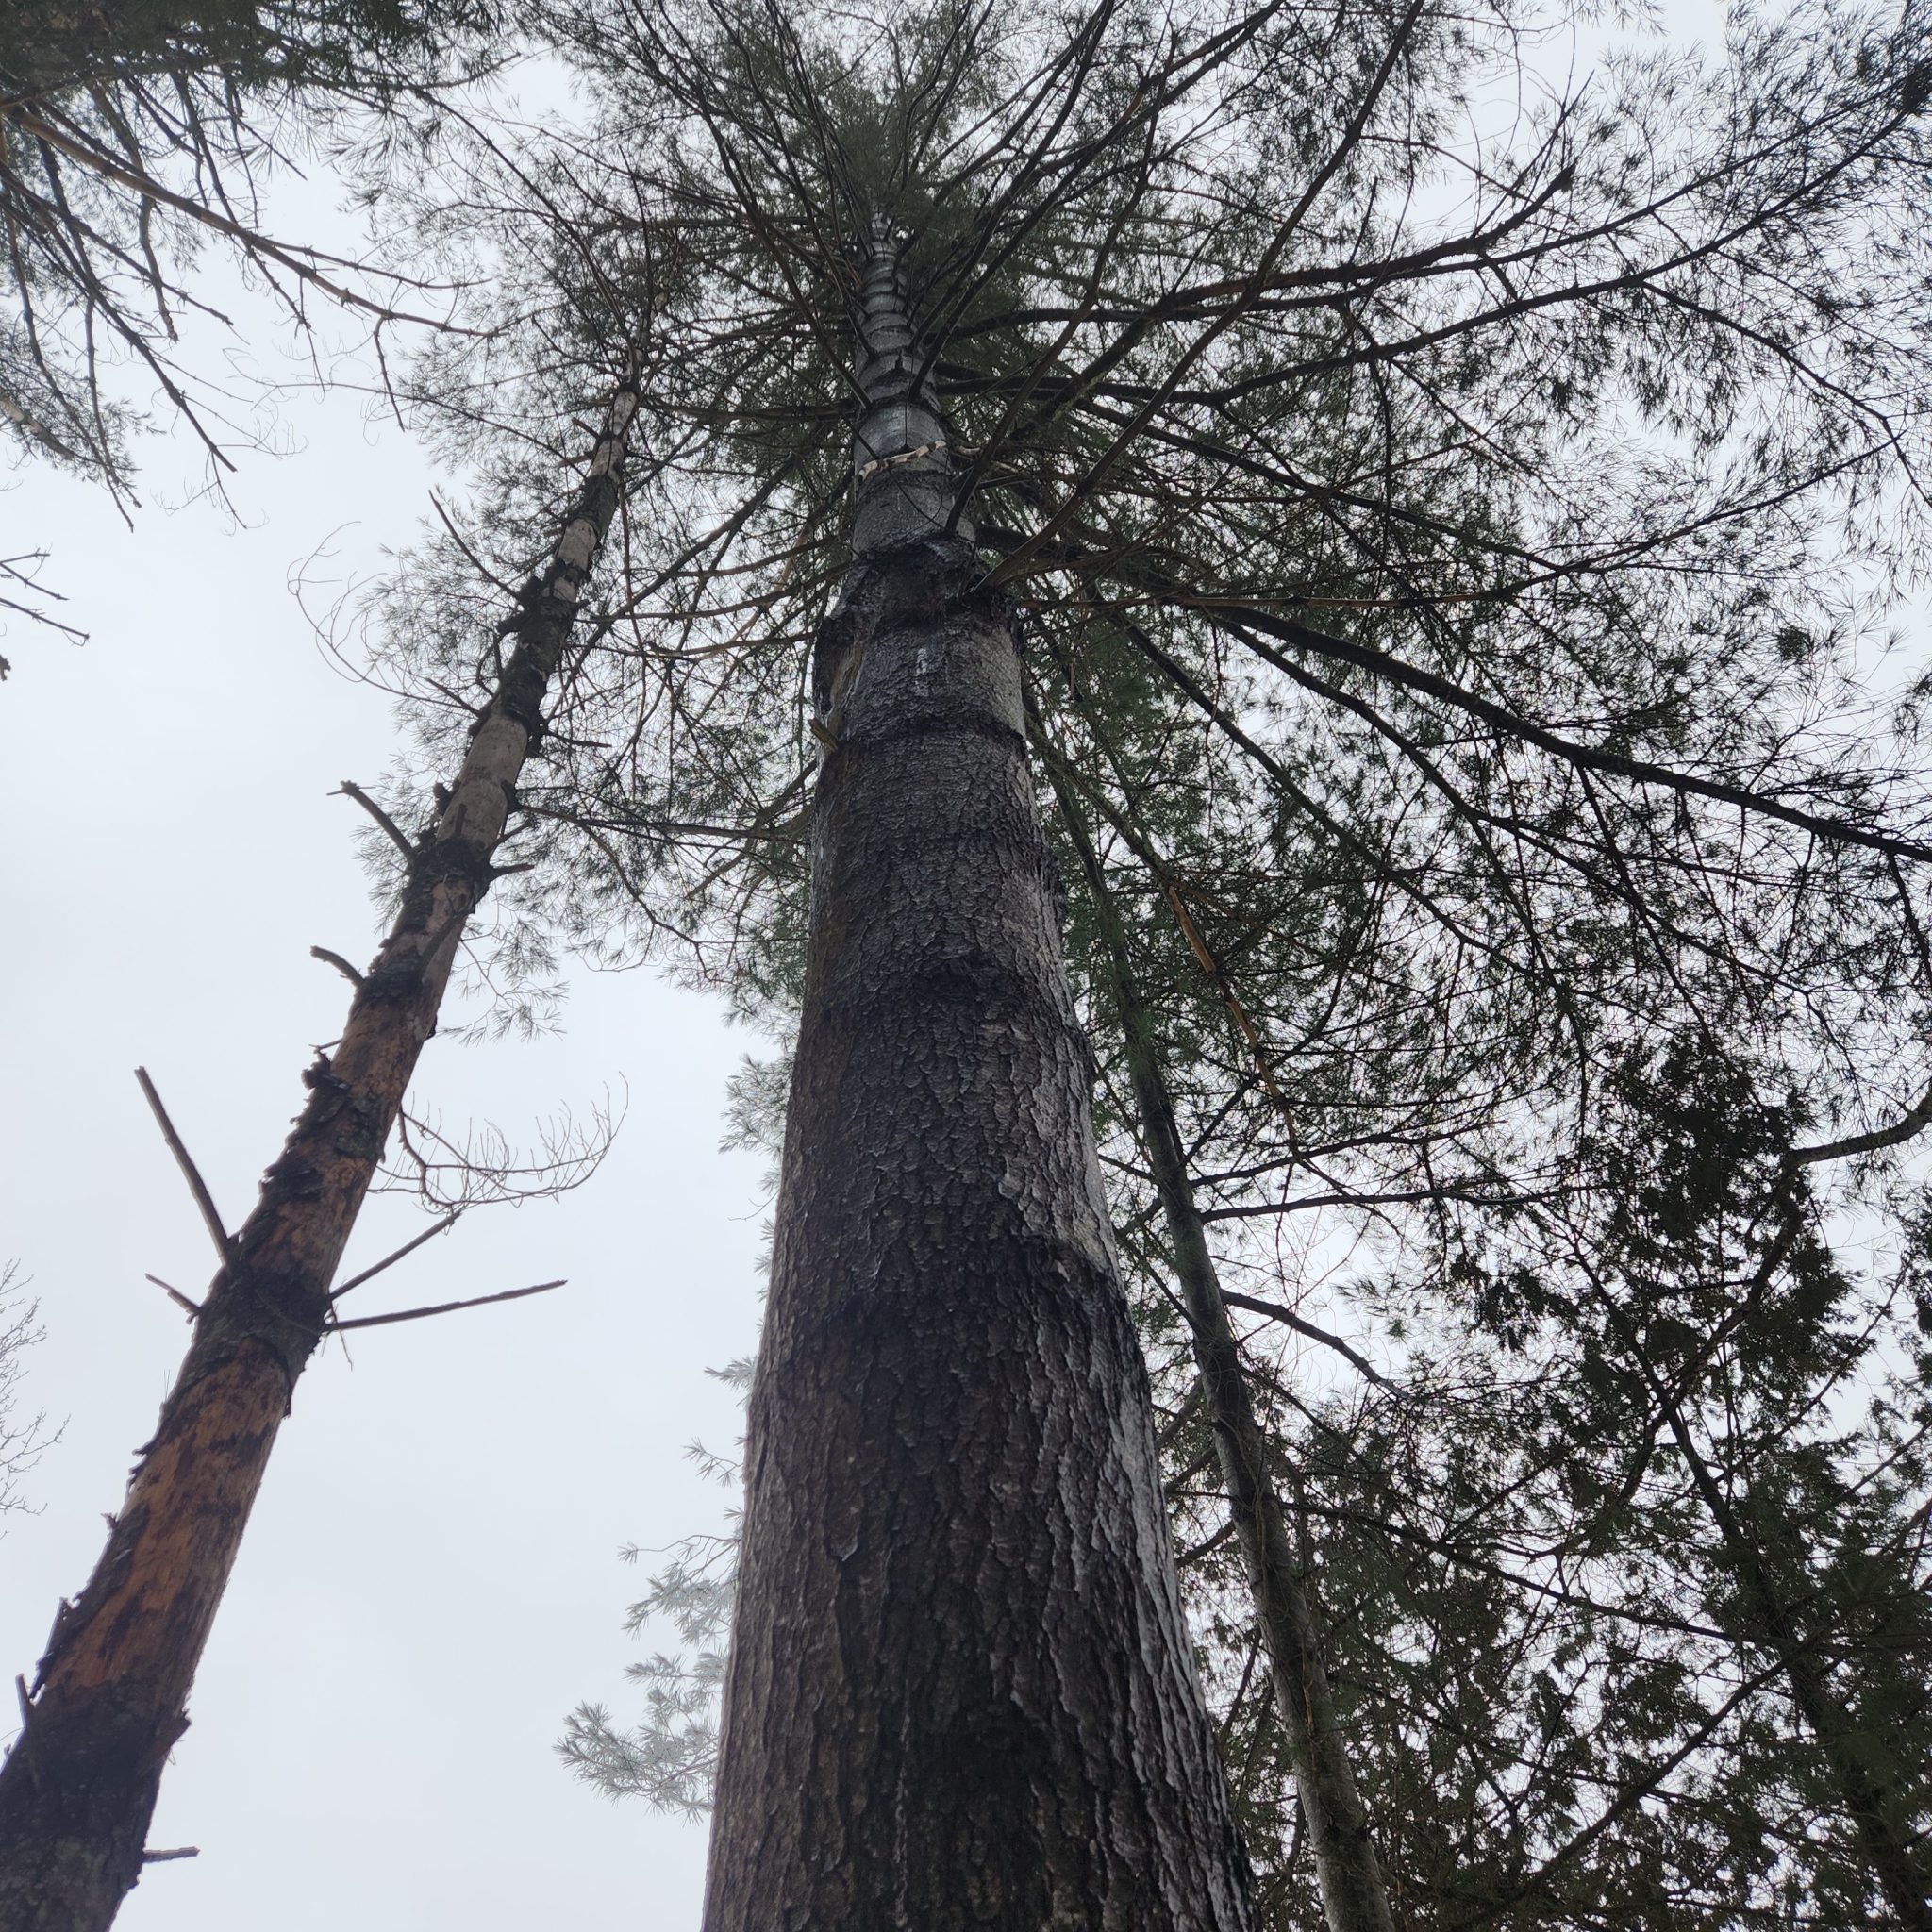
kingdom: Plantae
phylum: Tracheophyta
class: Pinopsida
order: Pinales
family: Pinaceae
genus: Pinus
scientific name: Pinus strobus
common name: Weymouth pine
